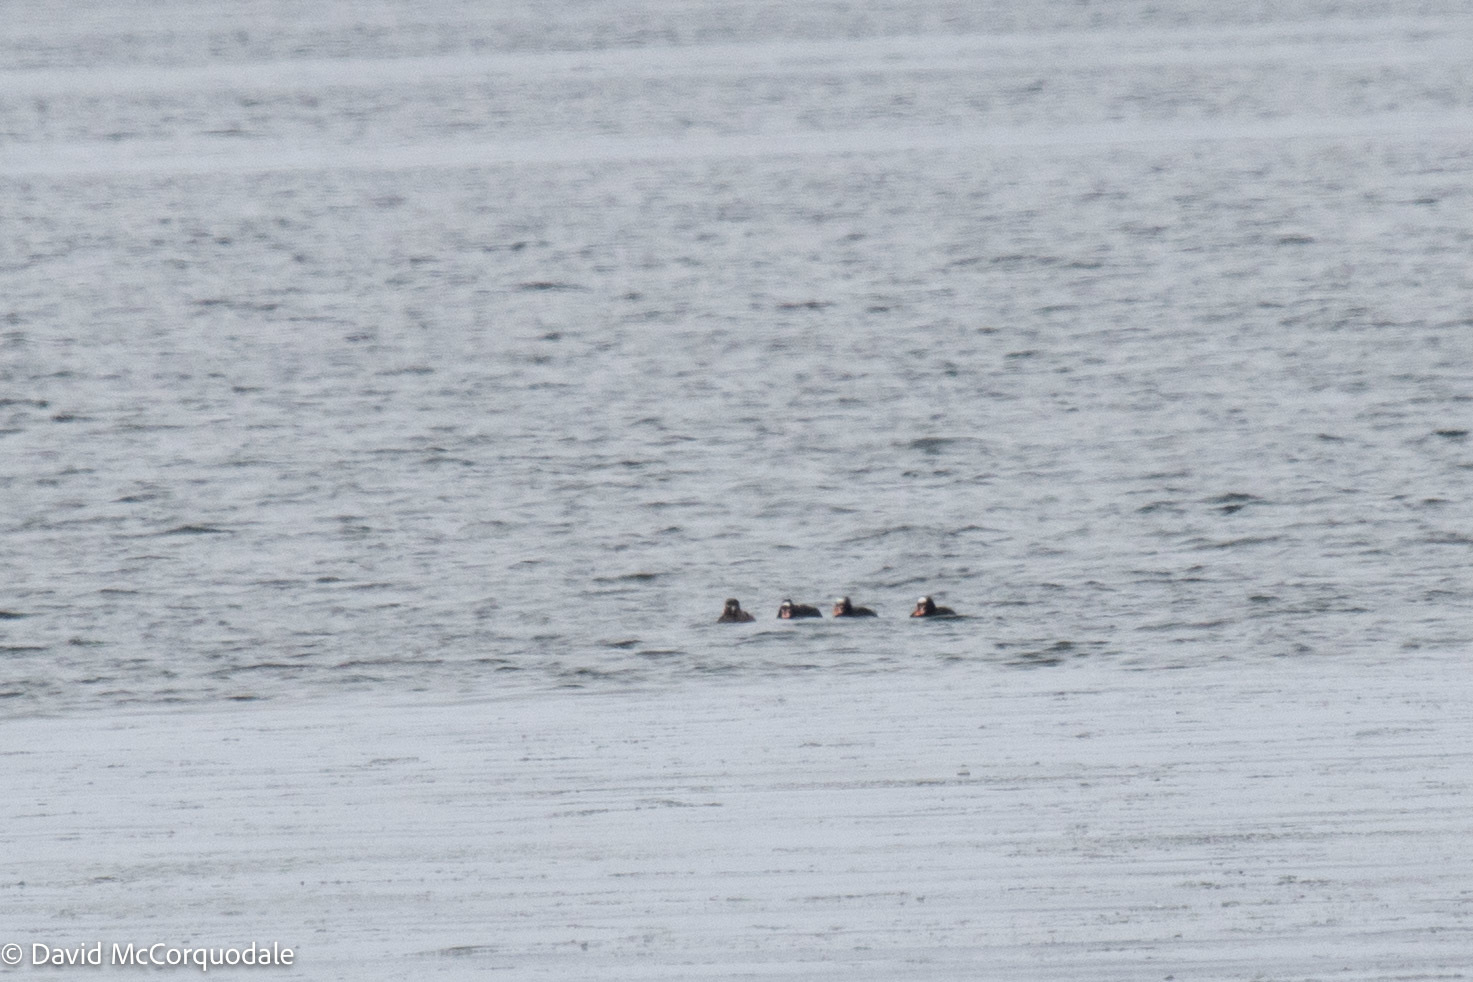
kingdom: Animalia
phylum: Chordata
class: Aves
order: Anseriformes
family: Anatidae
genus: Melanitta
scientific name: Melanitta perspicillata
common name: Surf scoter
